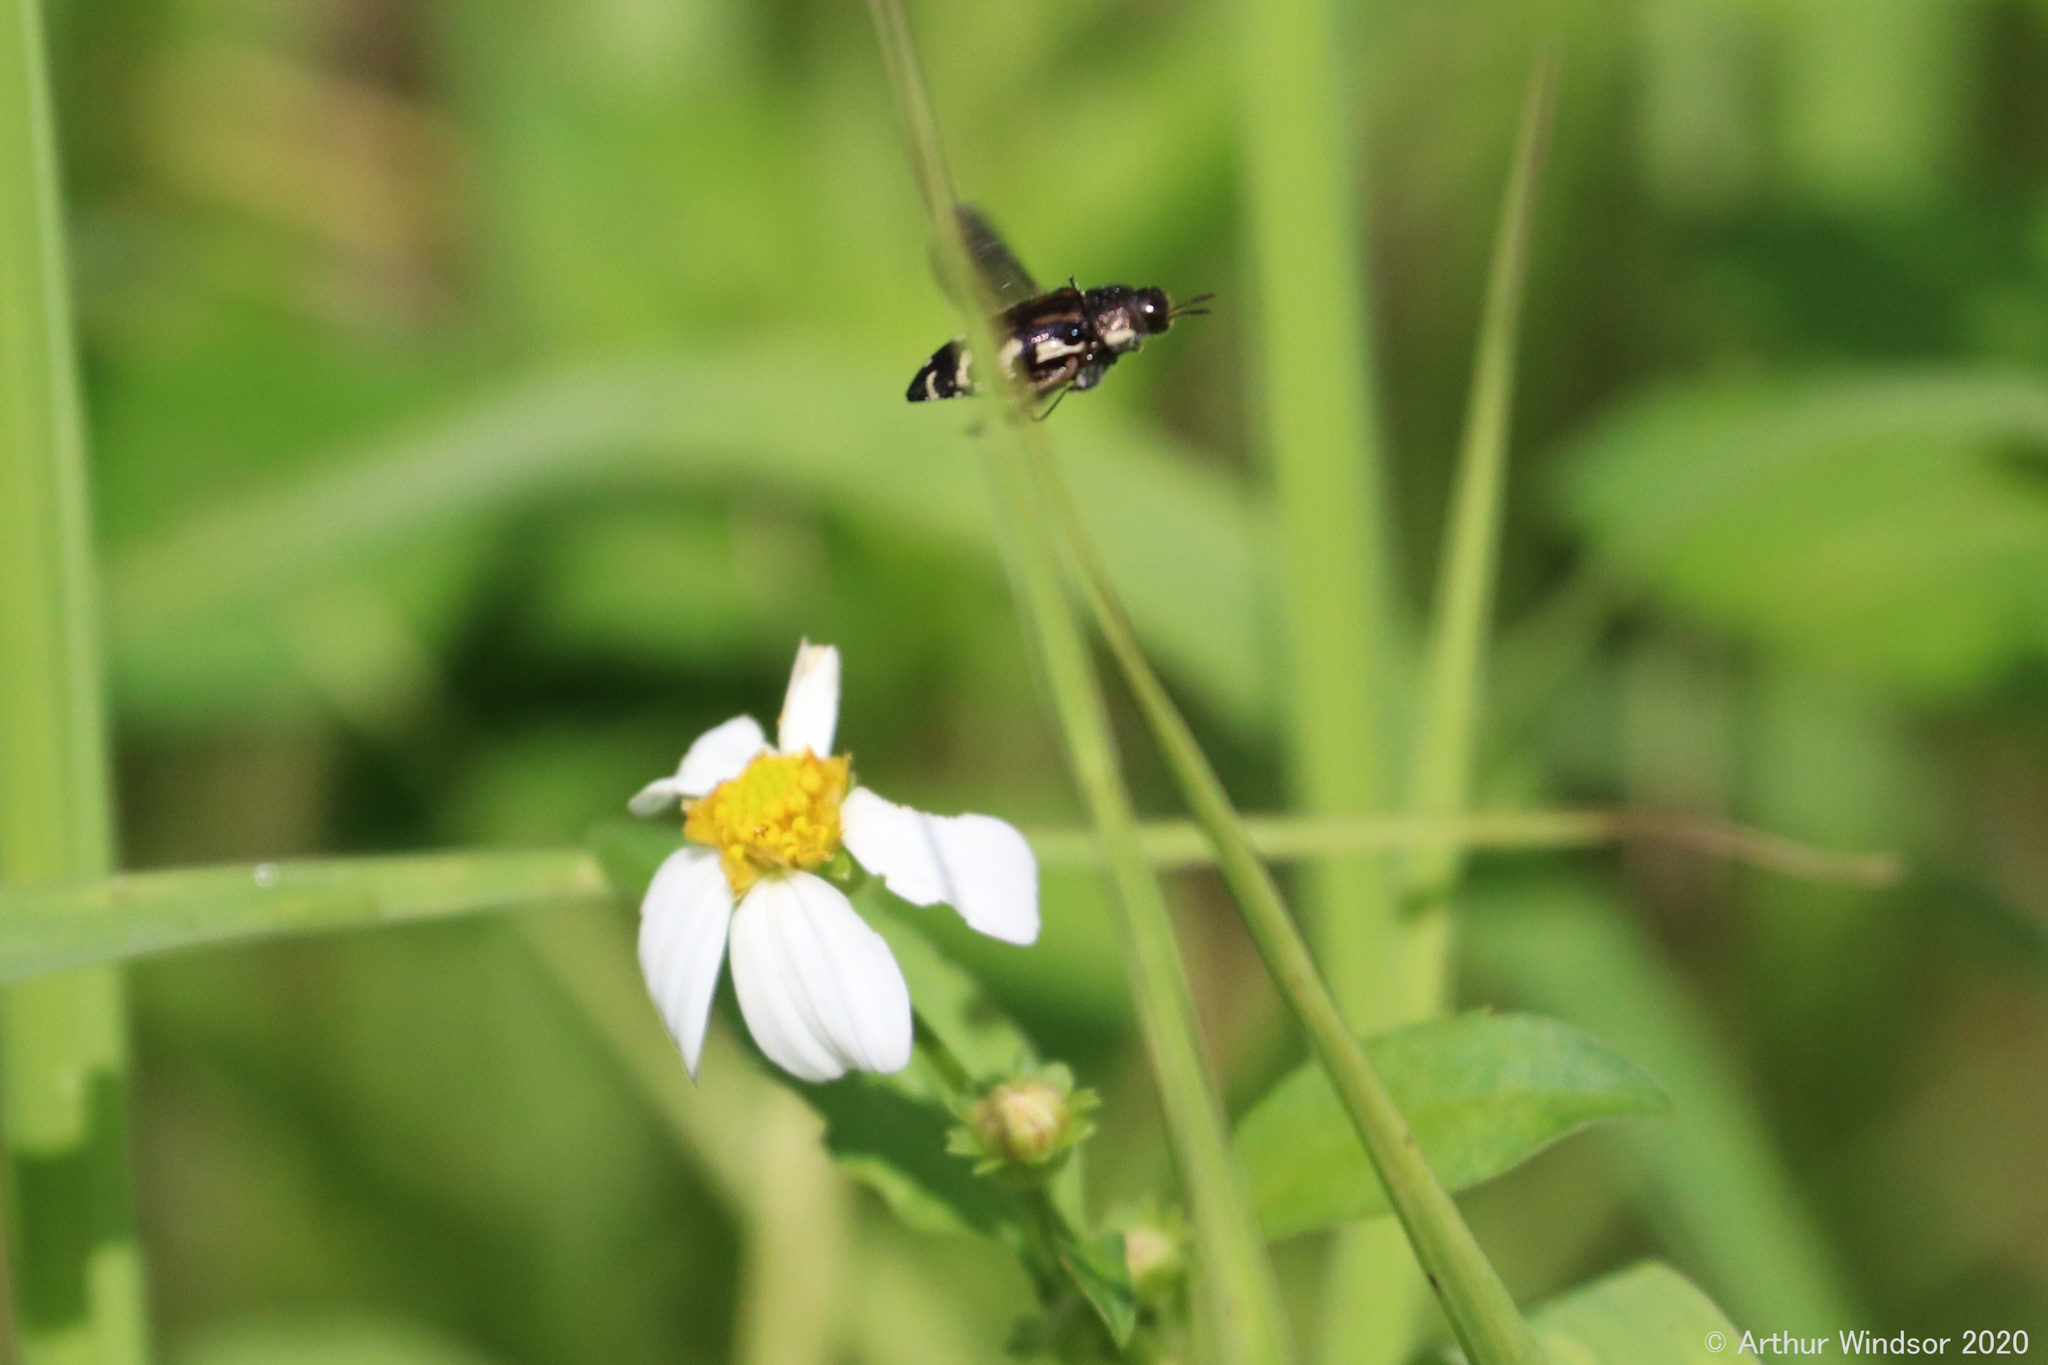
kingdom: Animalia
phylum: Arthropoda
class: Insecta
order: Coleoptera
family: Buprestidae
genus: Acmaeodera
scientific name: Acmaeodera pulchella
